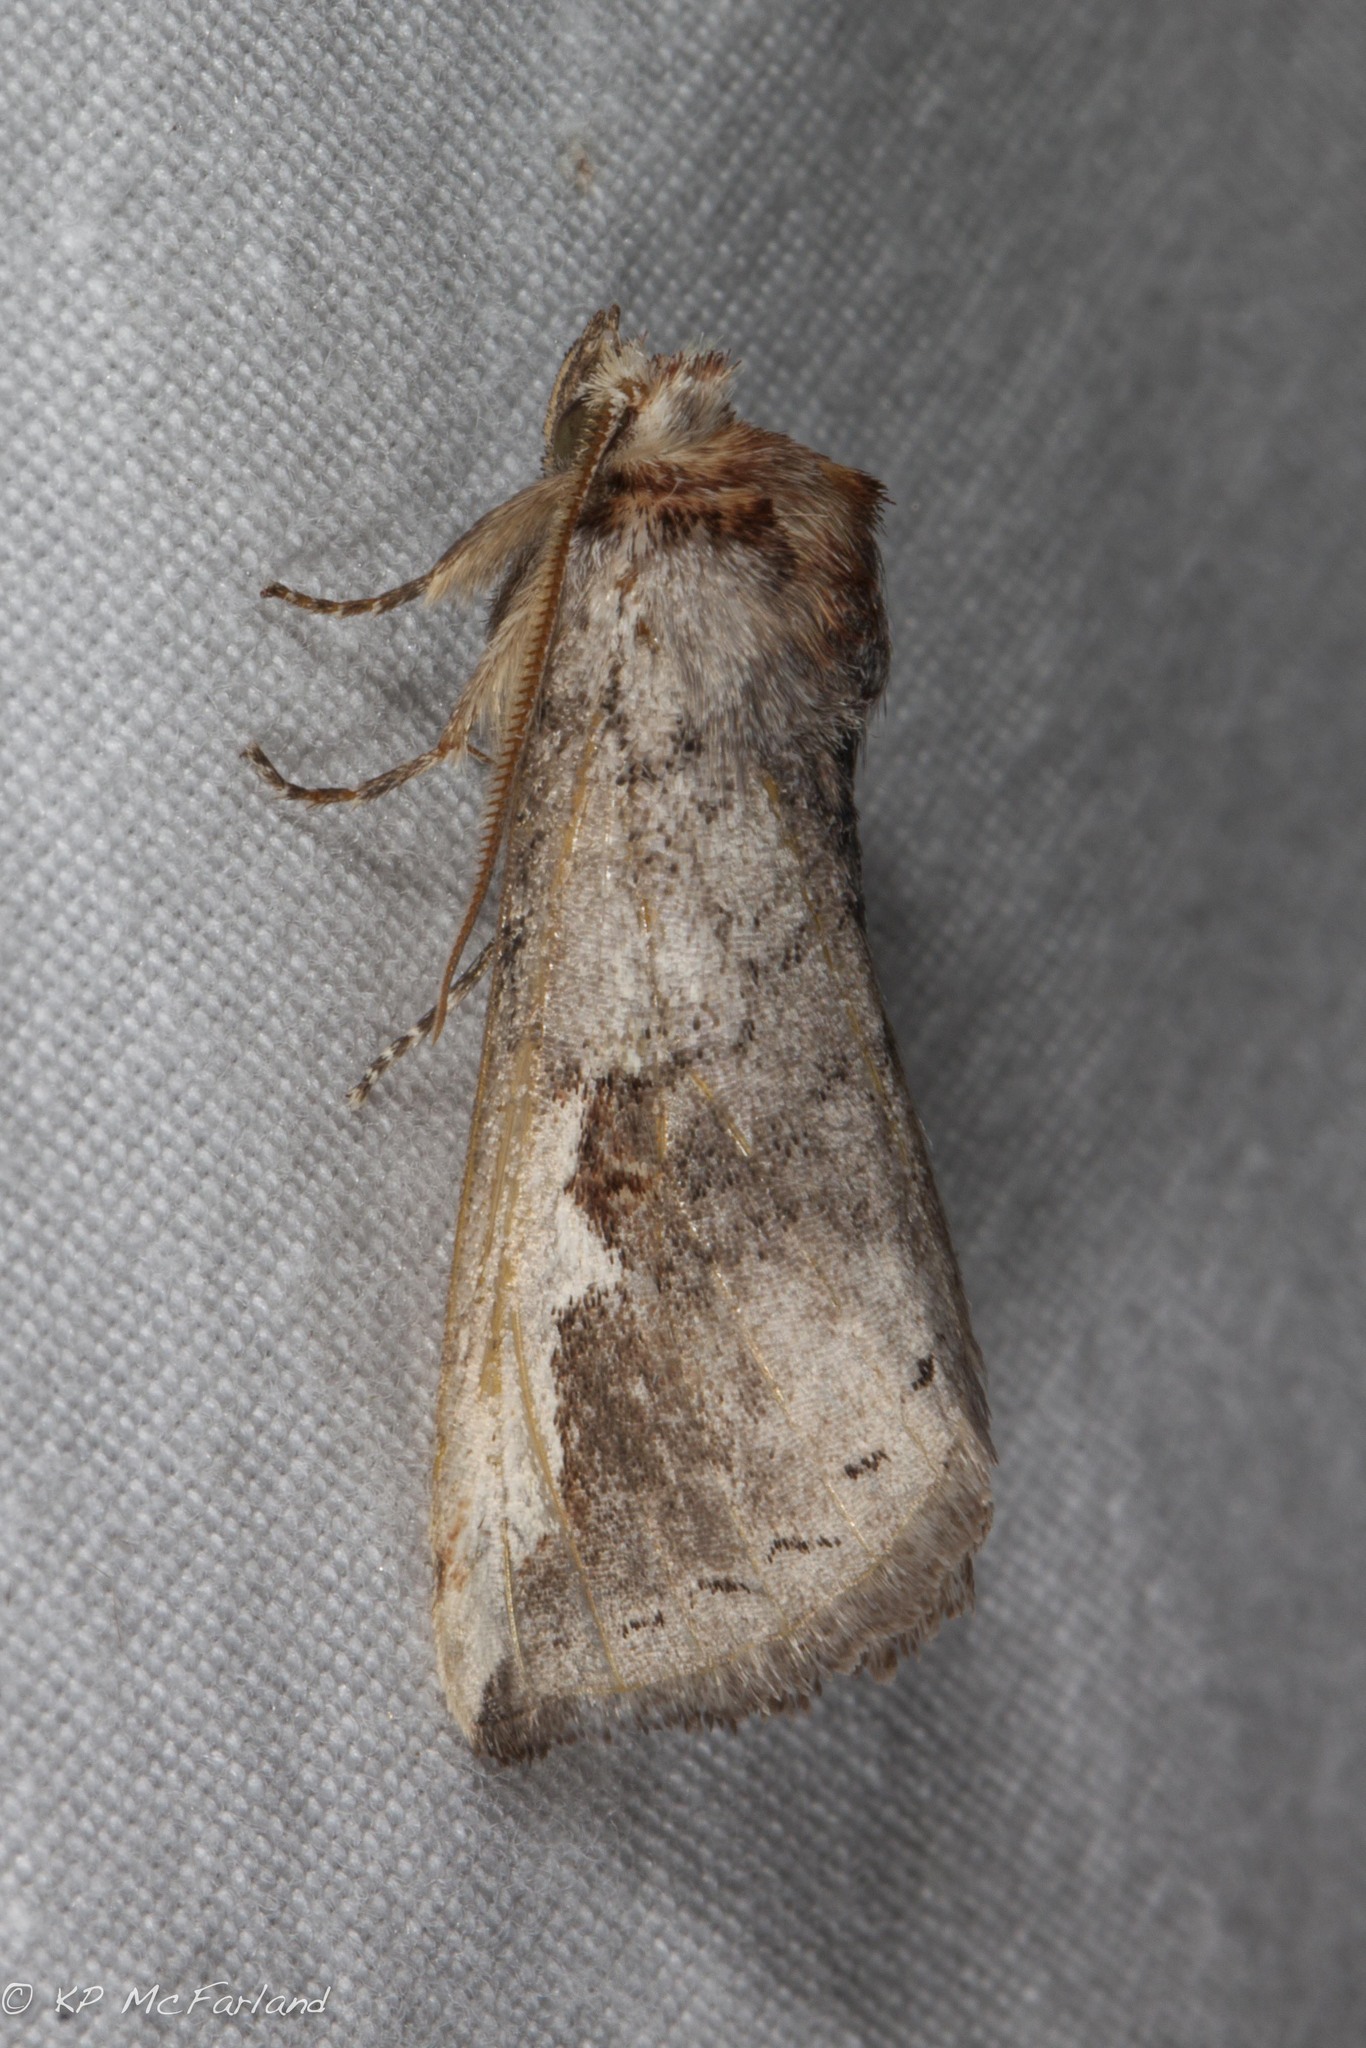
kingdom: Animalia
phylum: Arthropoda
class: Insecta
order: Lepidoptera
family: Notodontidae
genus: Symmerista
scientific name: Symmerista
